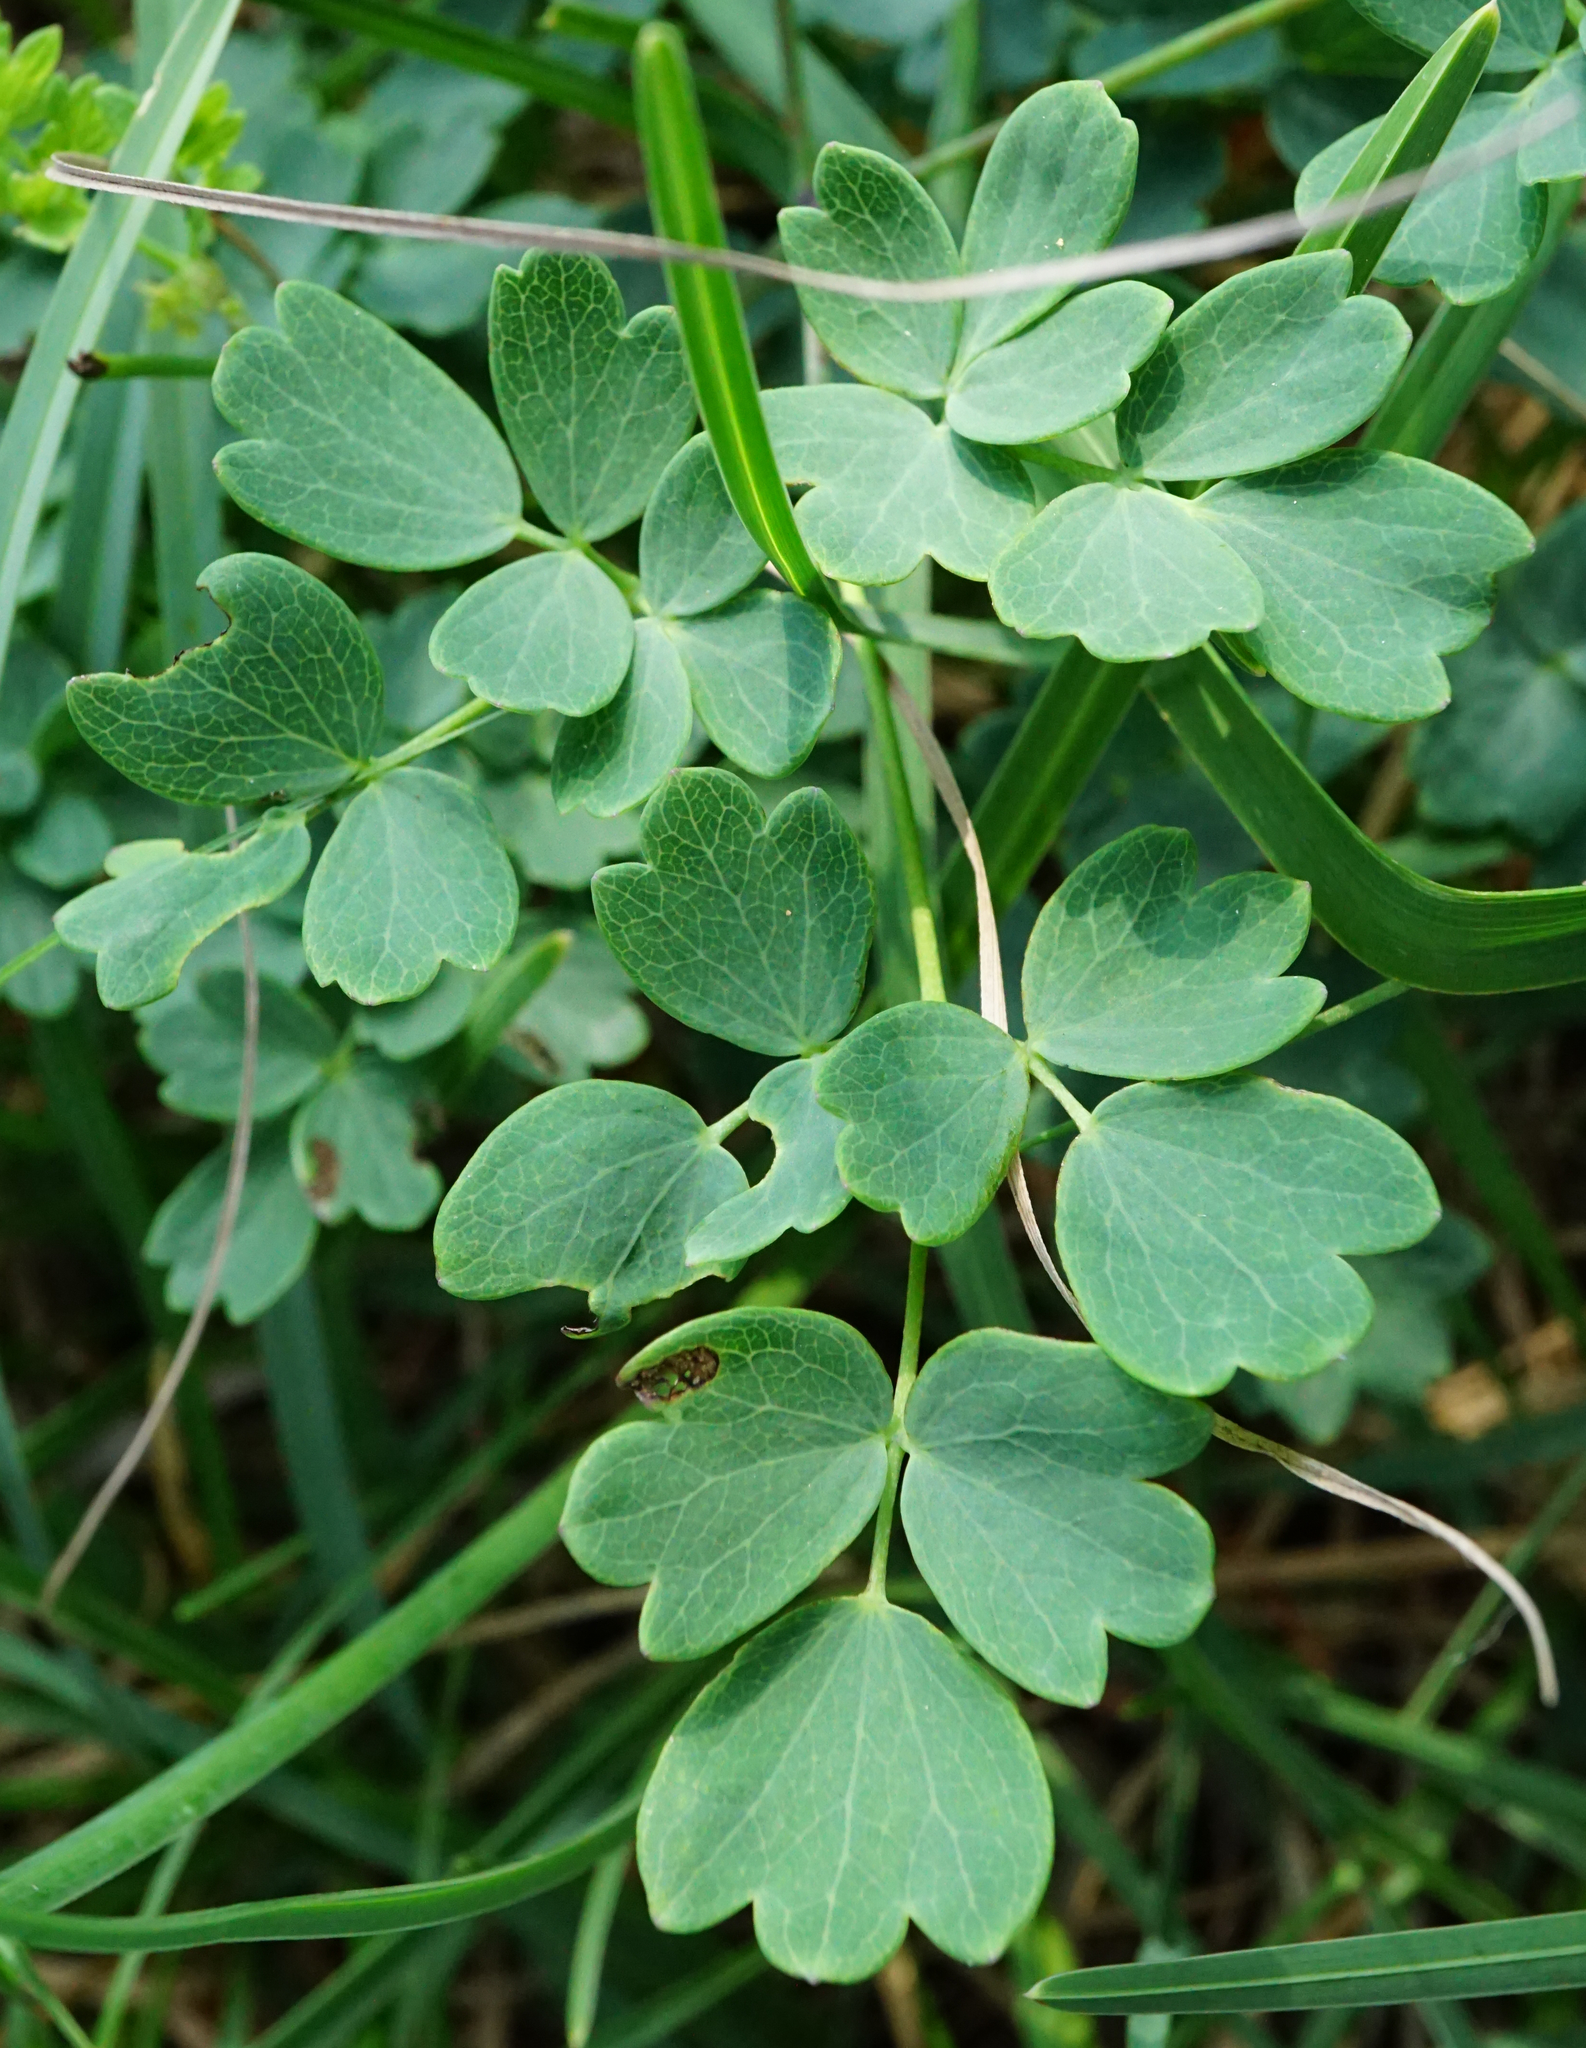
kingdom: Plantae
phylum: Tracheophyta
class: Magnoliopsida
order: Ranunculales
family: Ranunculaceae
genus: Thalictrum
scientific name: Thalictrum minus
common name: Lesser meadow-rue
